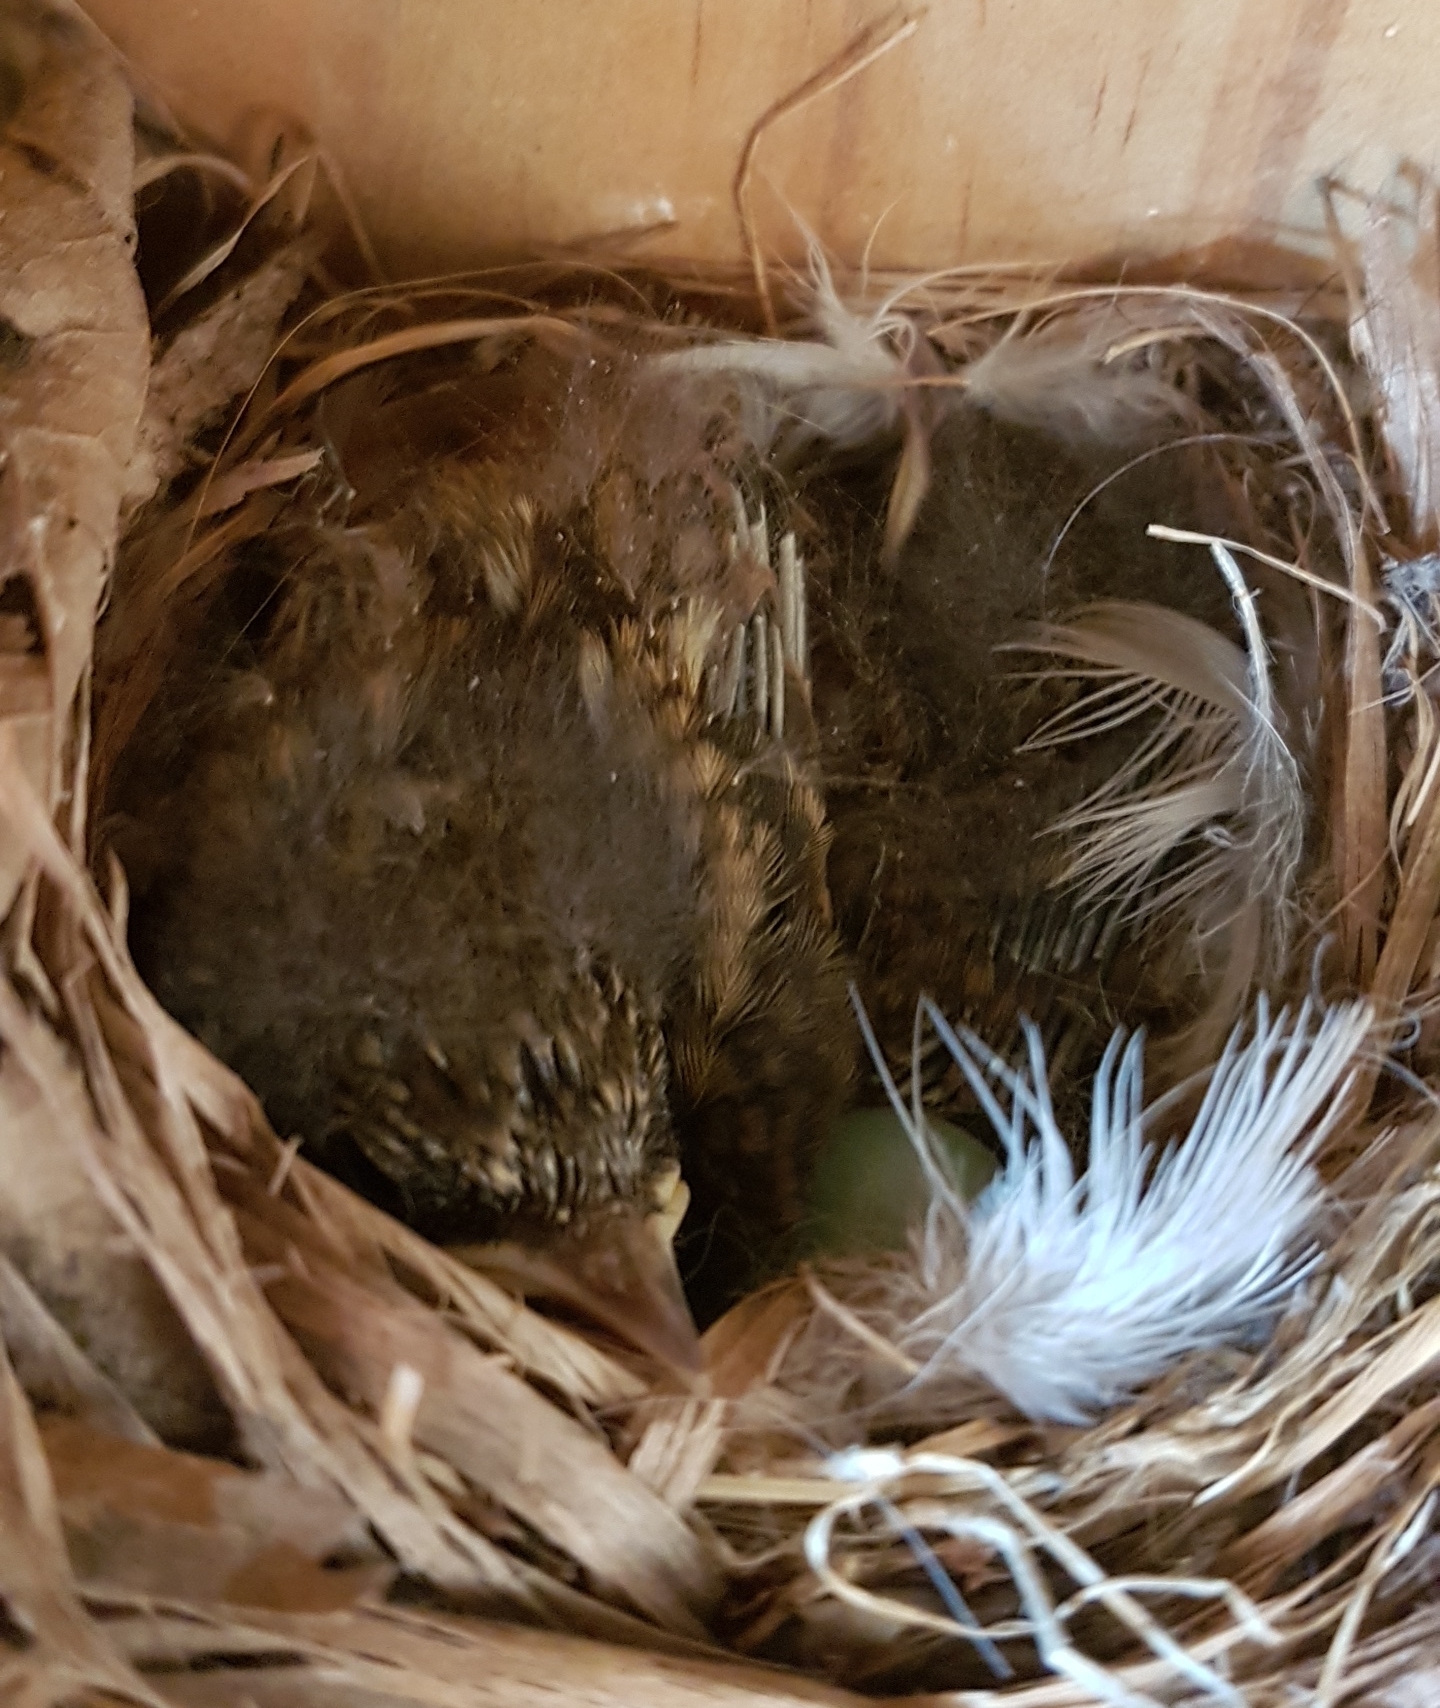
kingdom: Animalia
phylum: Chordata
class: Aves
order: Passeriformes
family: Muscicapidae
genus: Phoenicurus
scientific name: Phoenicurus phoenicurus
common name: Common redstart
